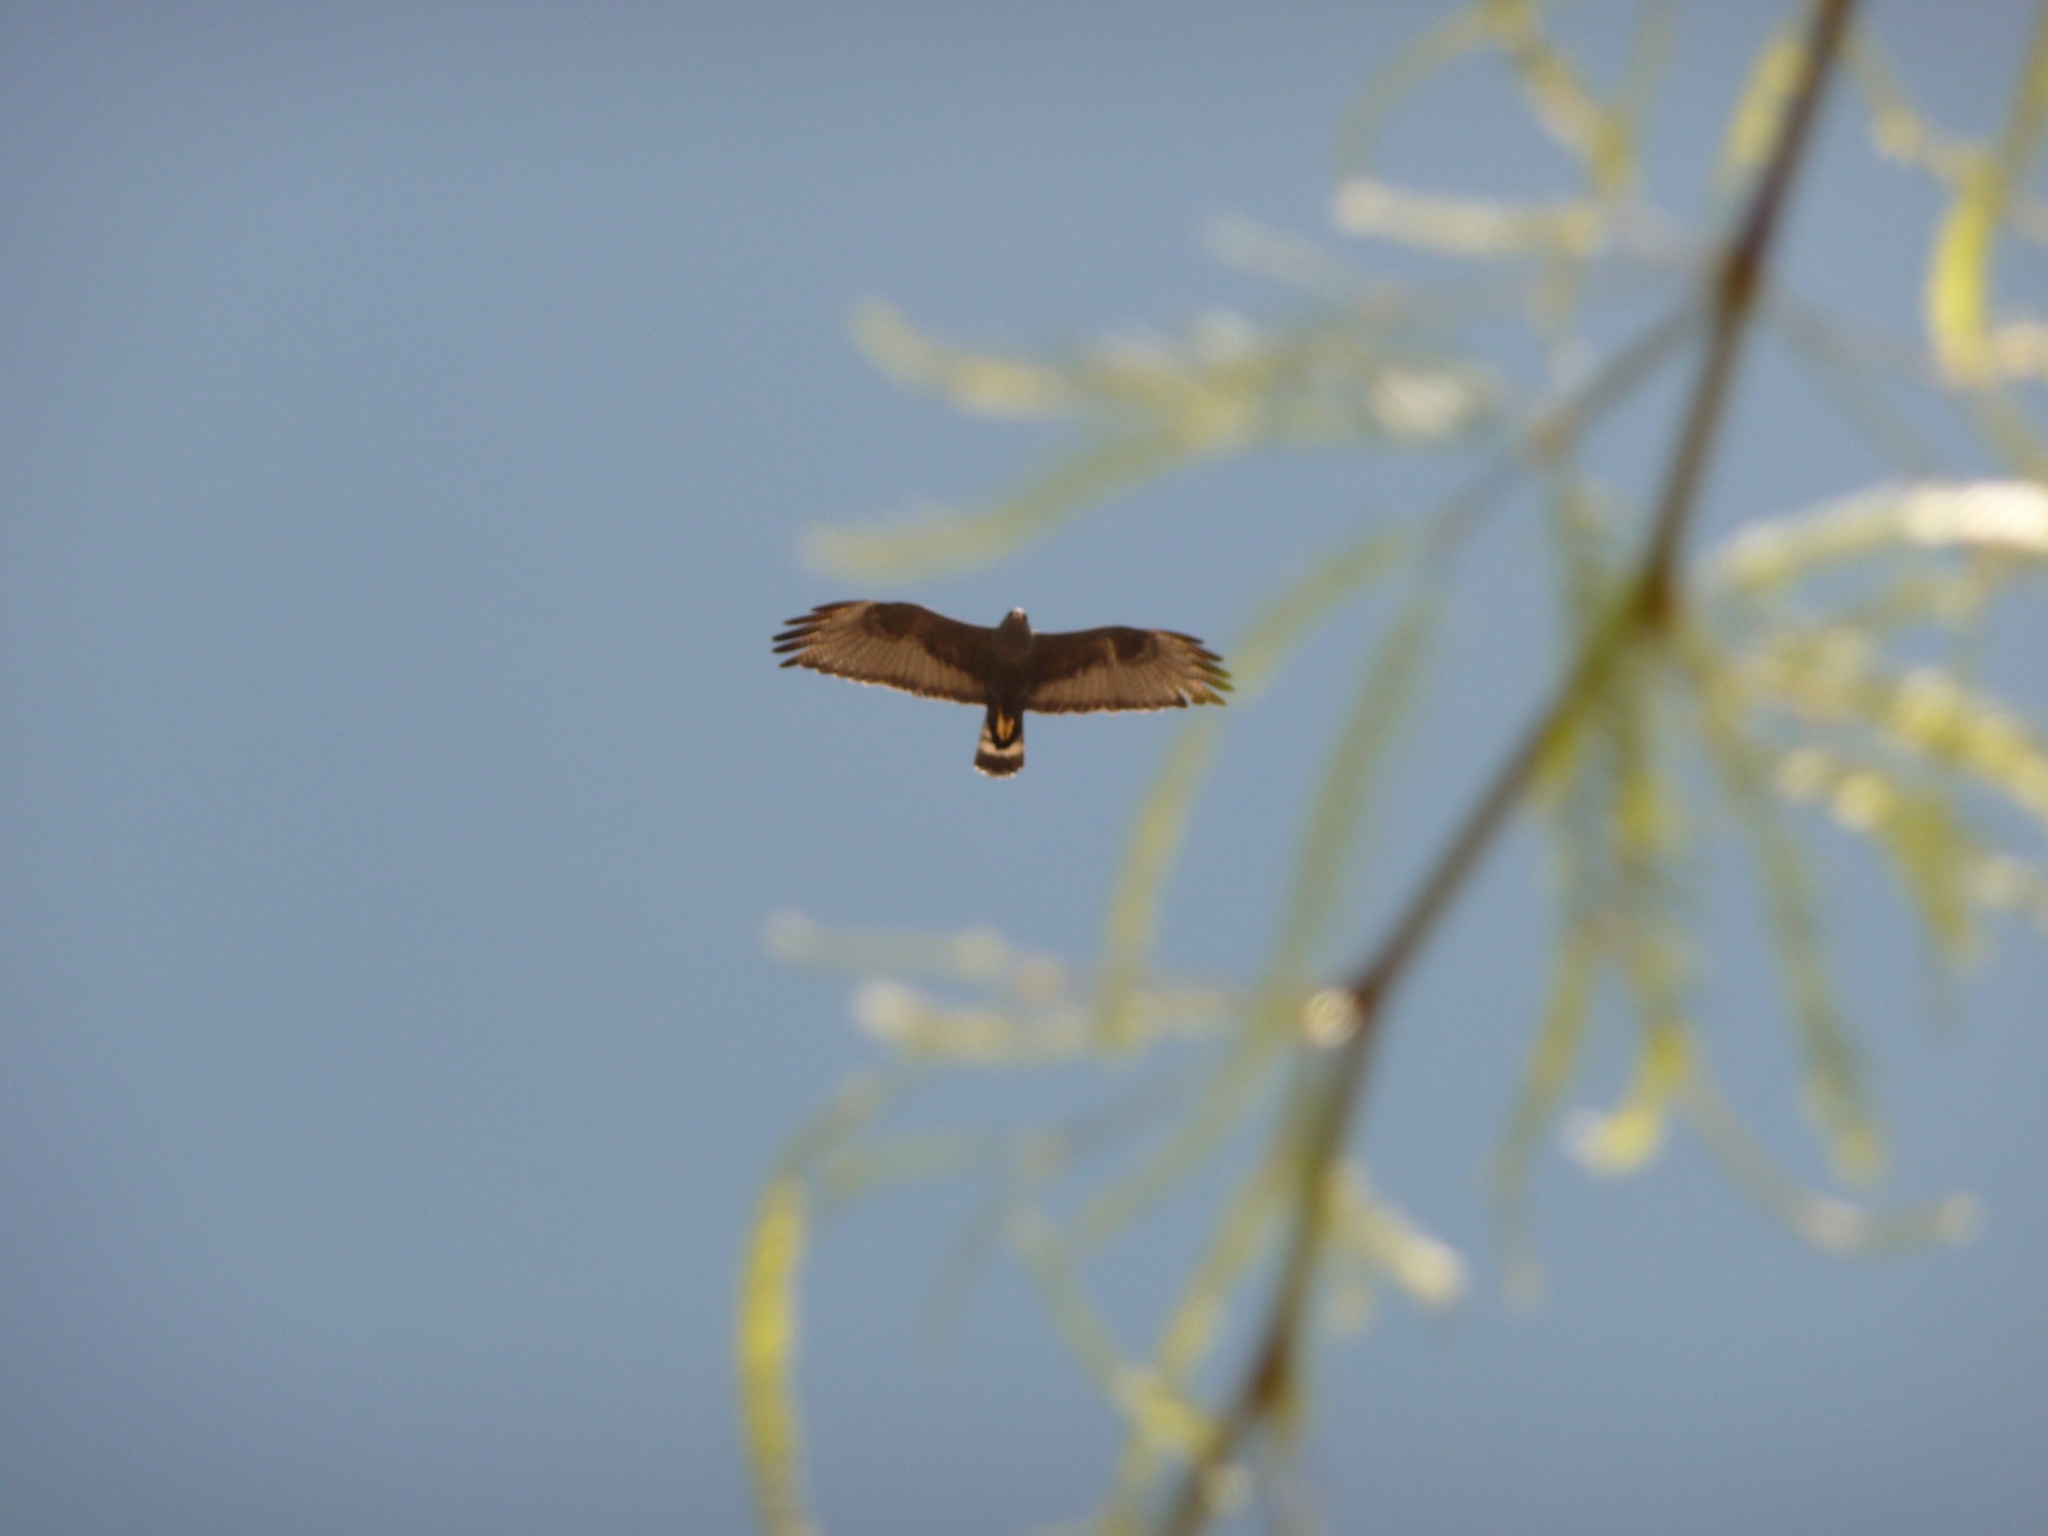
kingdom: Animalia
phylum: Chordata
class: Aves
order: Accipitriformes
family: Accipitridae
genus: Buteo
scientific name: Buteo albonotatus
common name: Zone-tailed hawk
